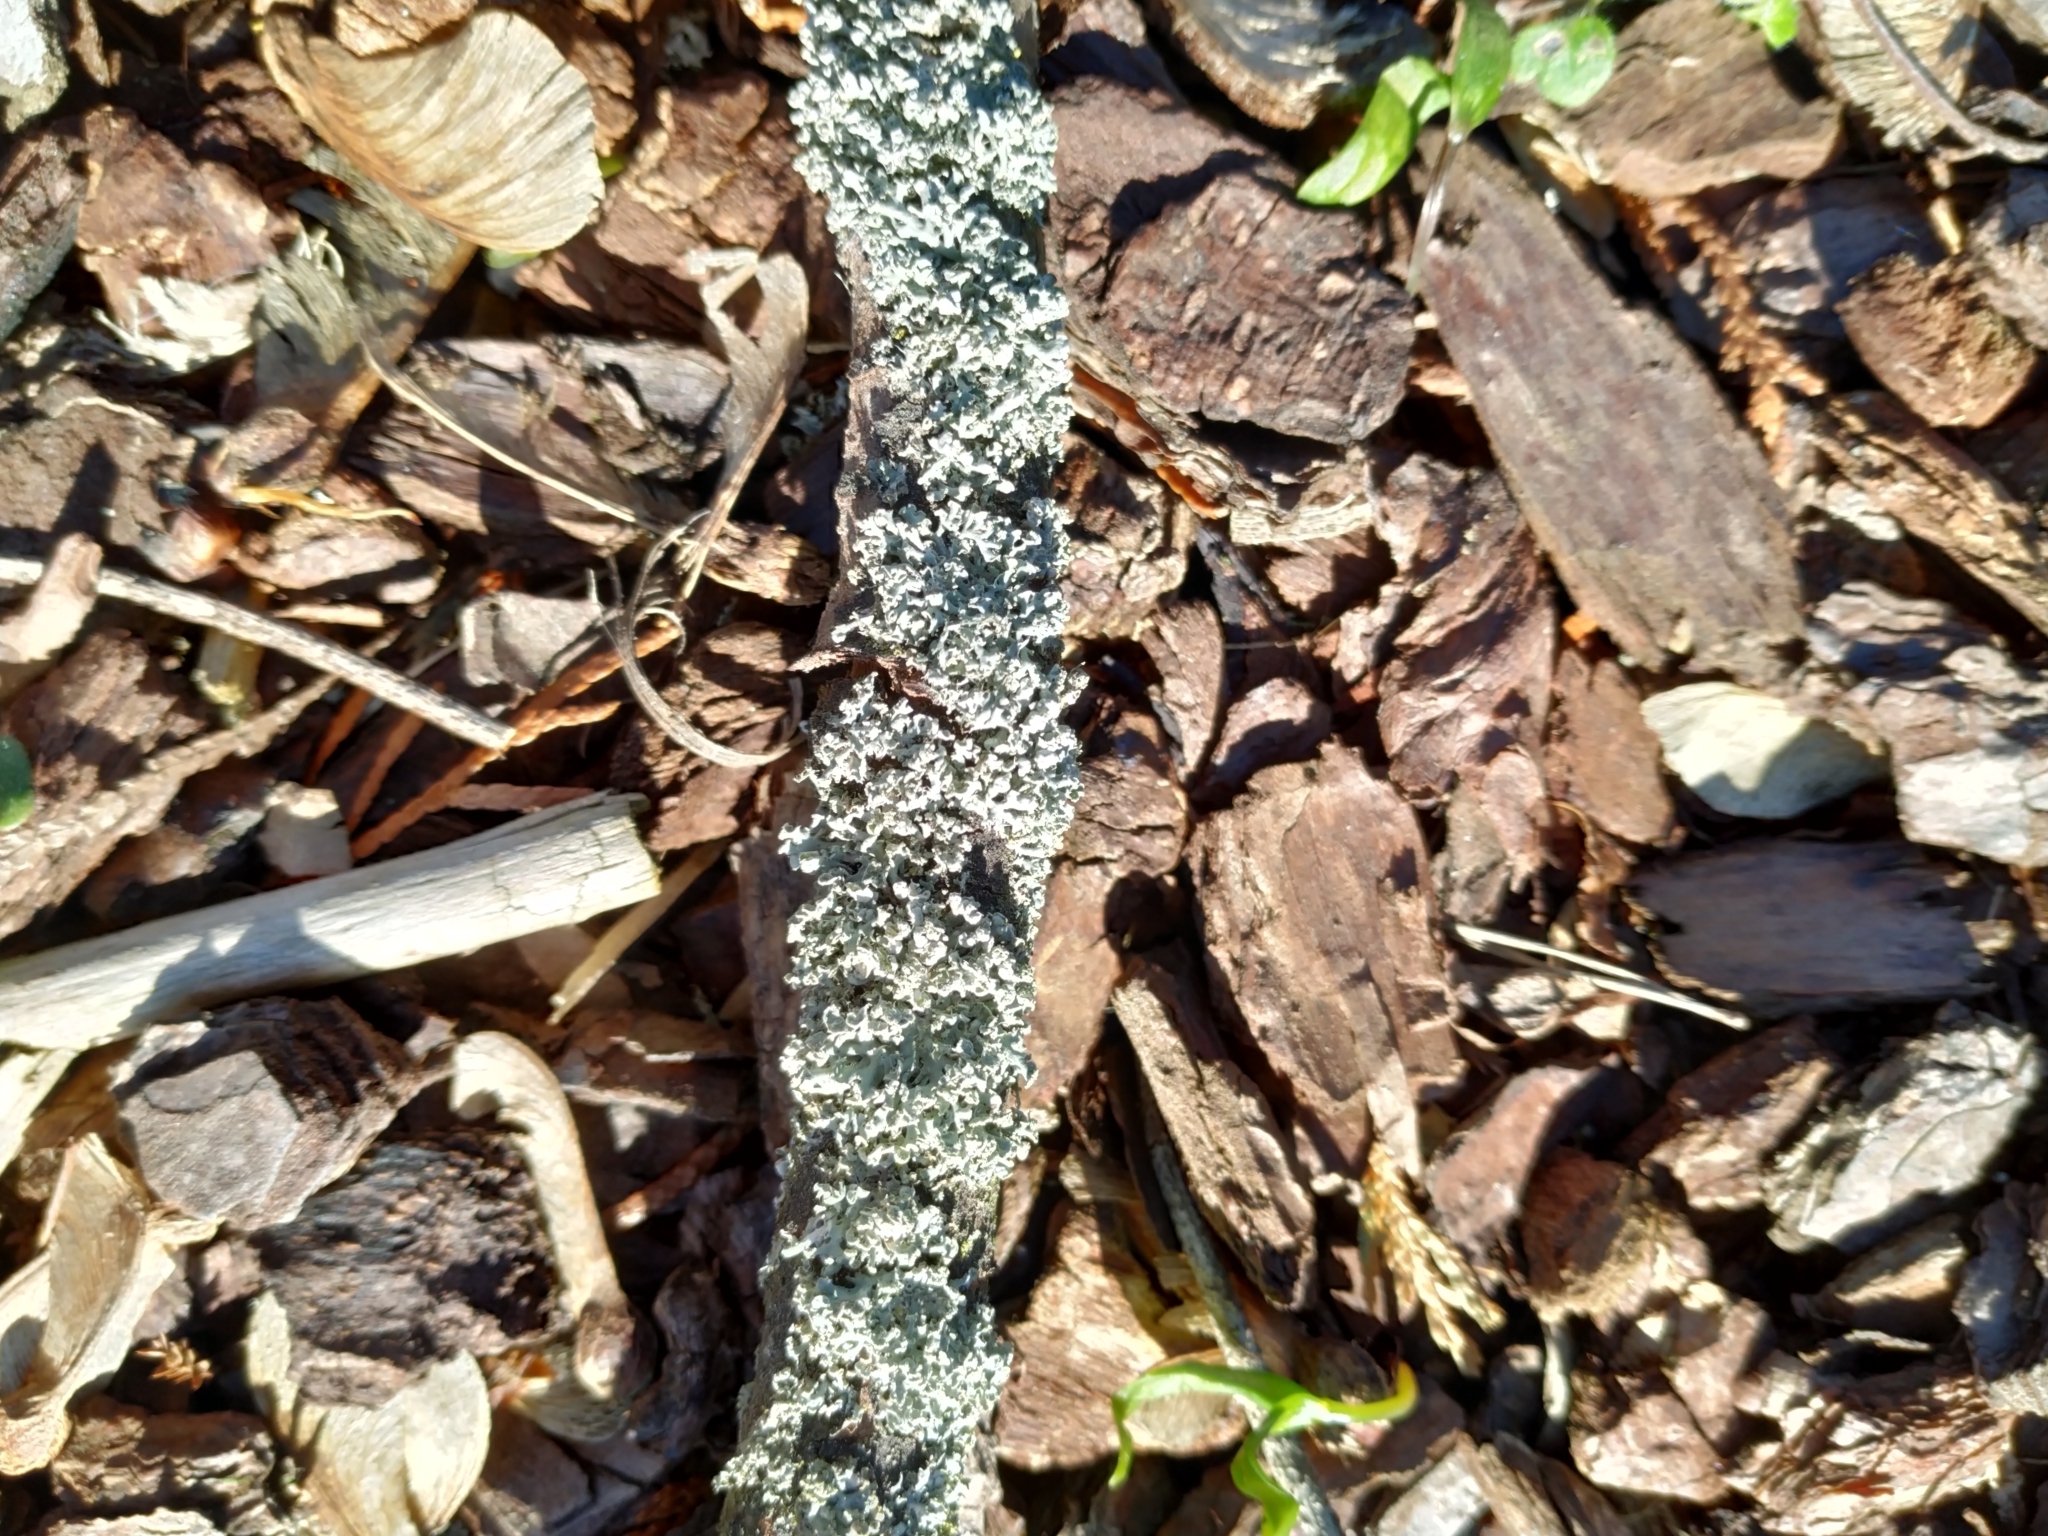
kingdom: Fungi
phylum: Ascomycota
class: Lecanoromycetes
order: Caliciales
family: Physciaceae
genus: Physcia
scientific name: Physcia adscendens
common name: Hooded rosette lichen
